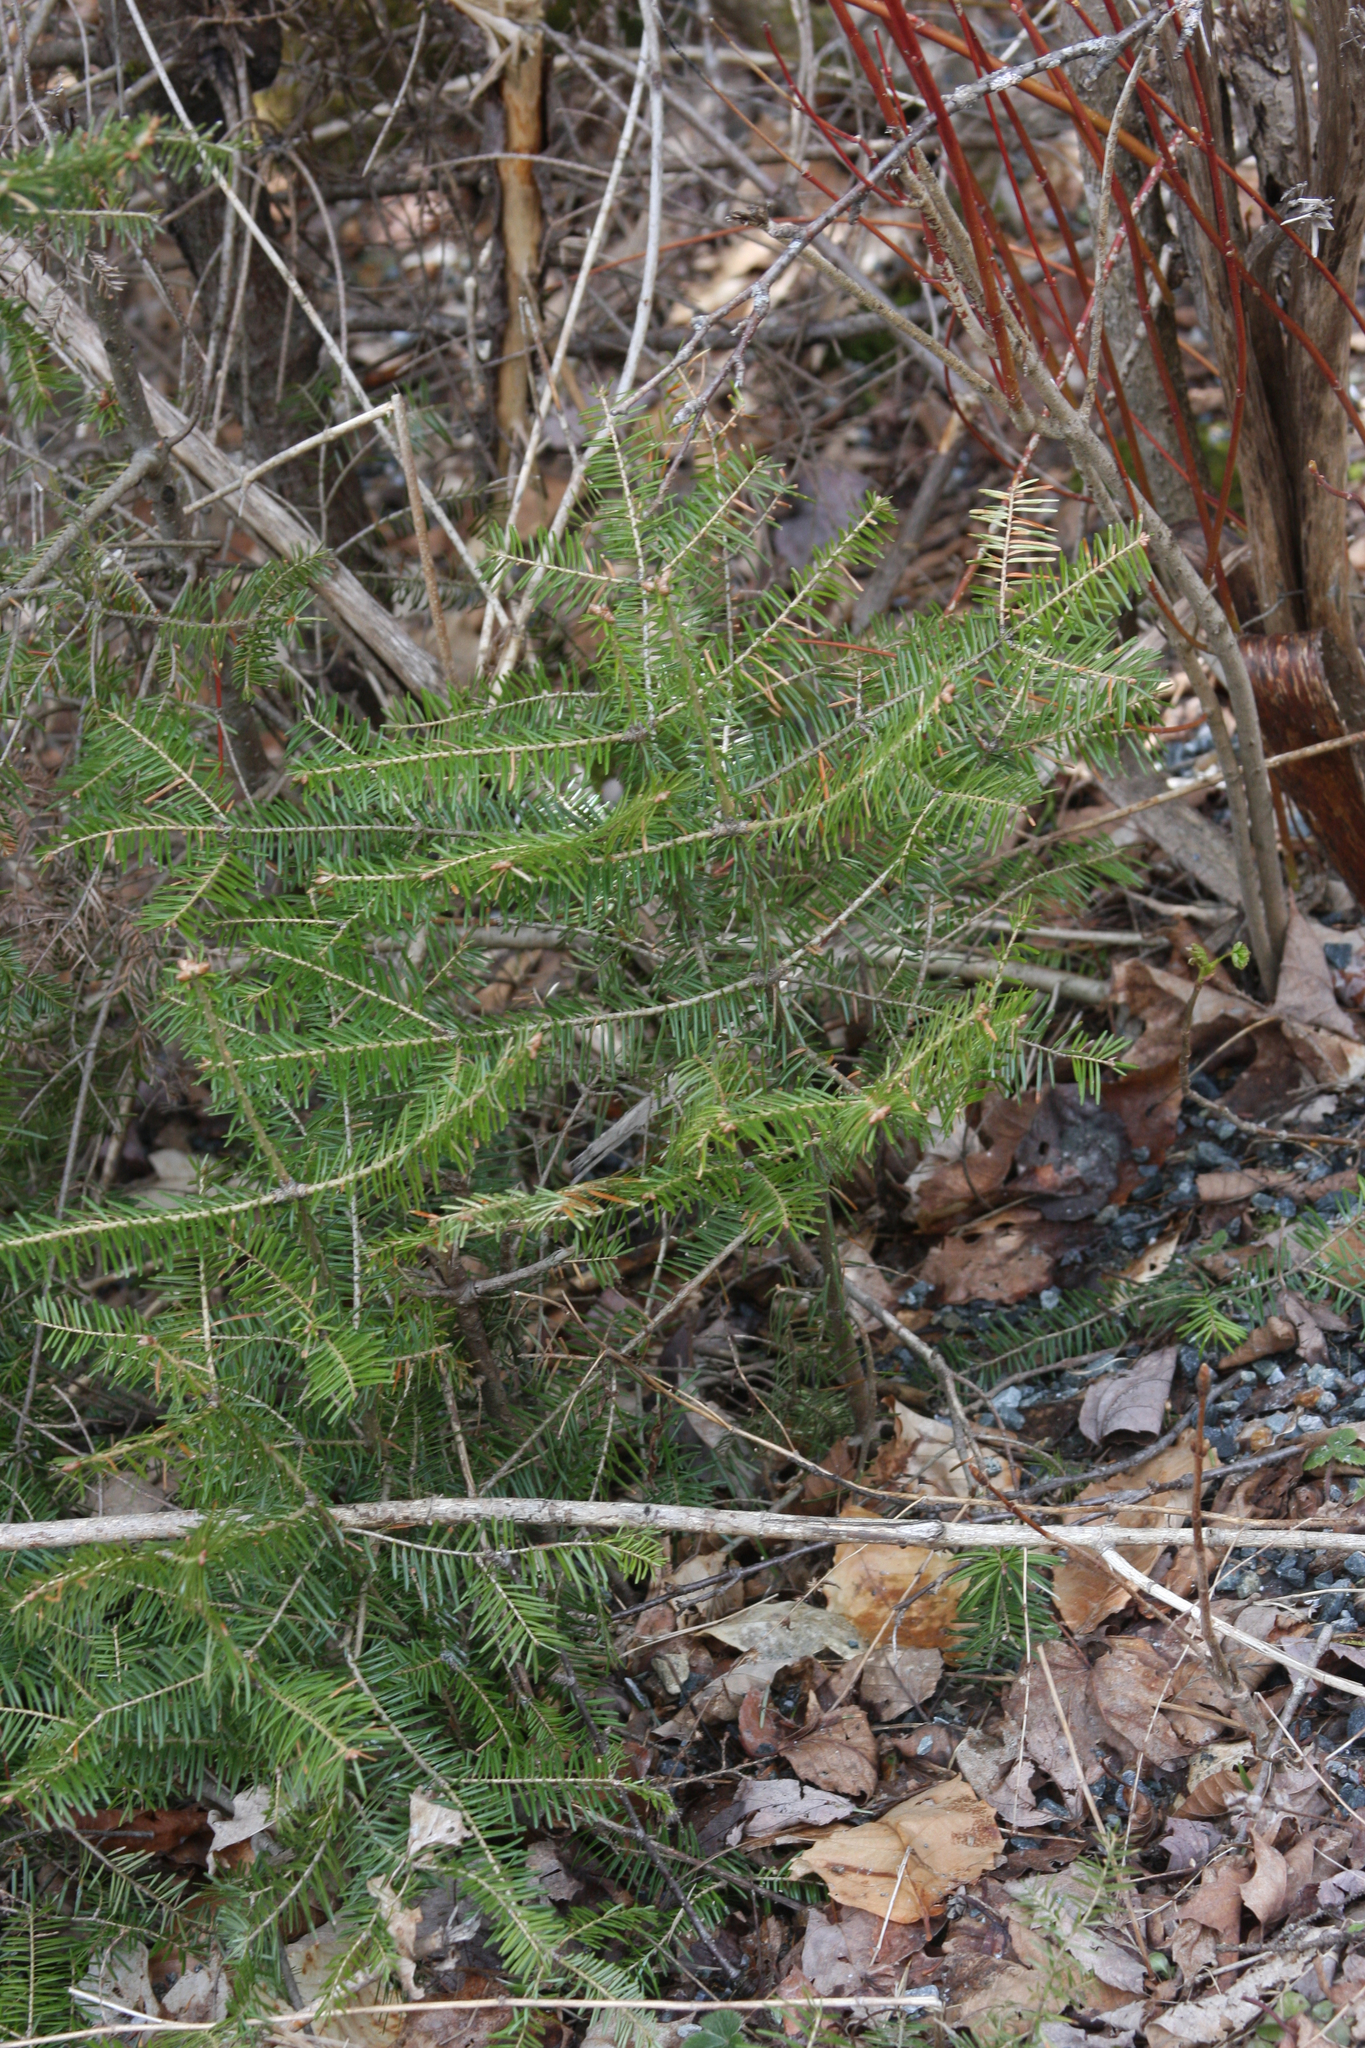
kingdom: Plantae
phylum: Tracheophyta
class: Pinopsida
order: Pinales
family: Pinaceae
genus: Abies
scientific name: Abies balsamea
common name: Balsam fir
